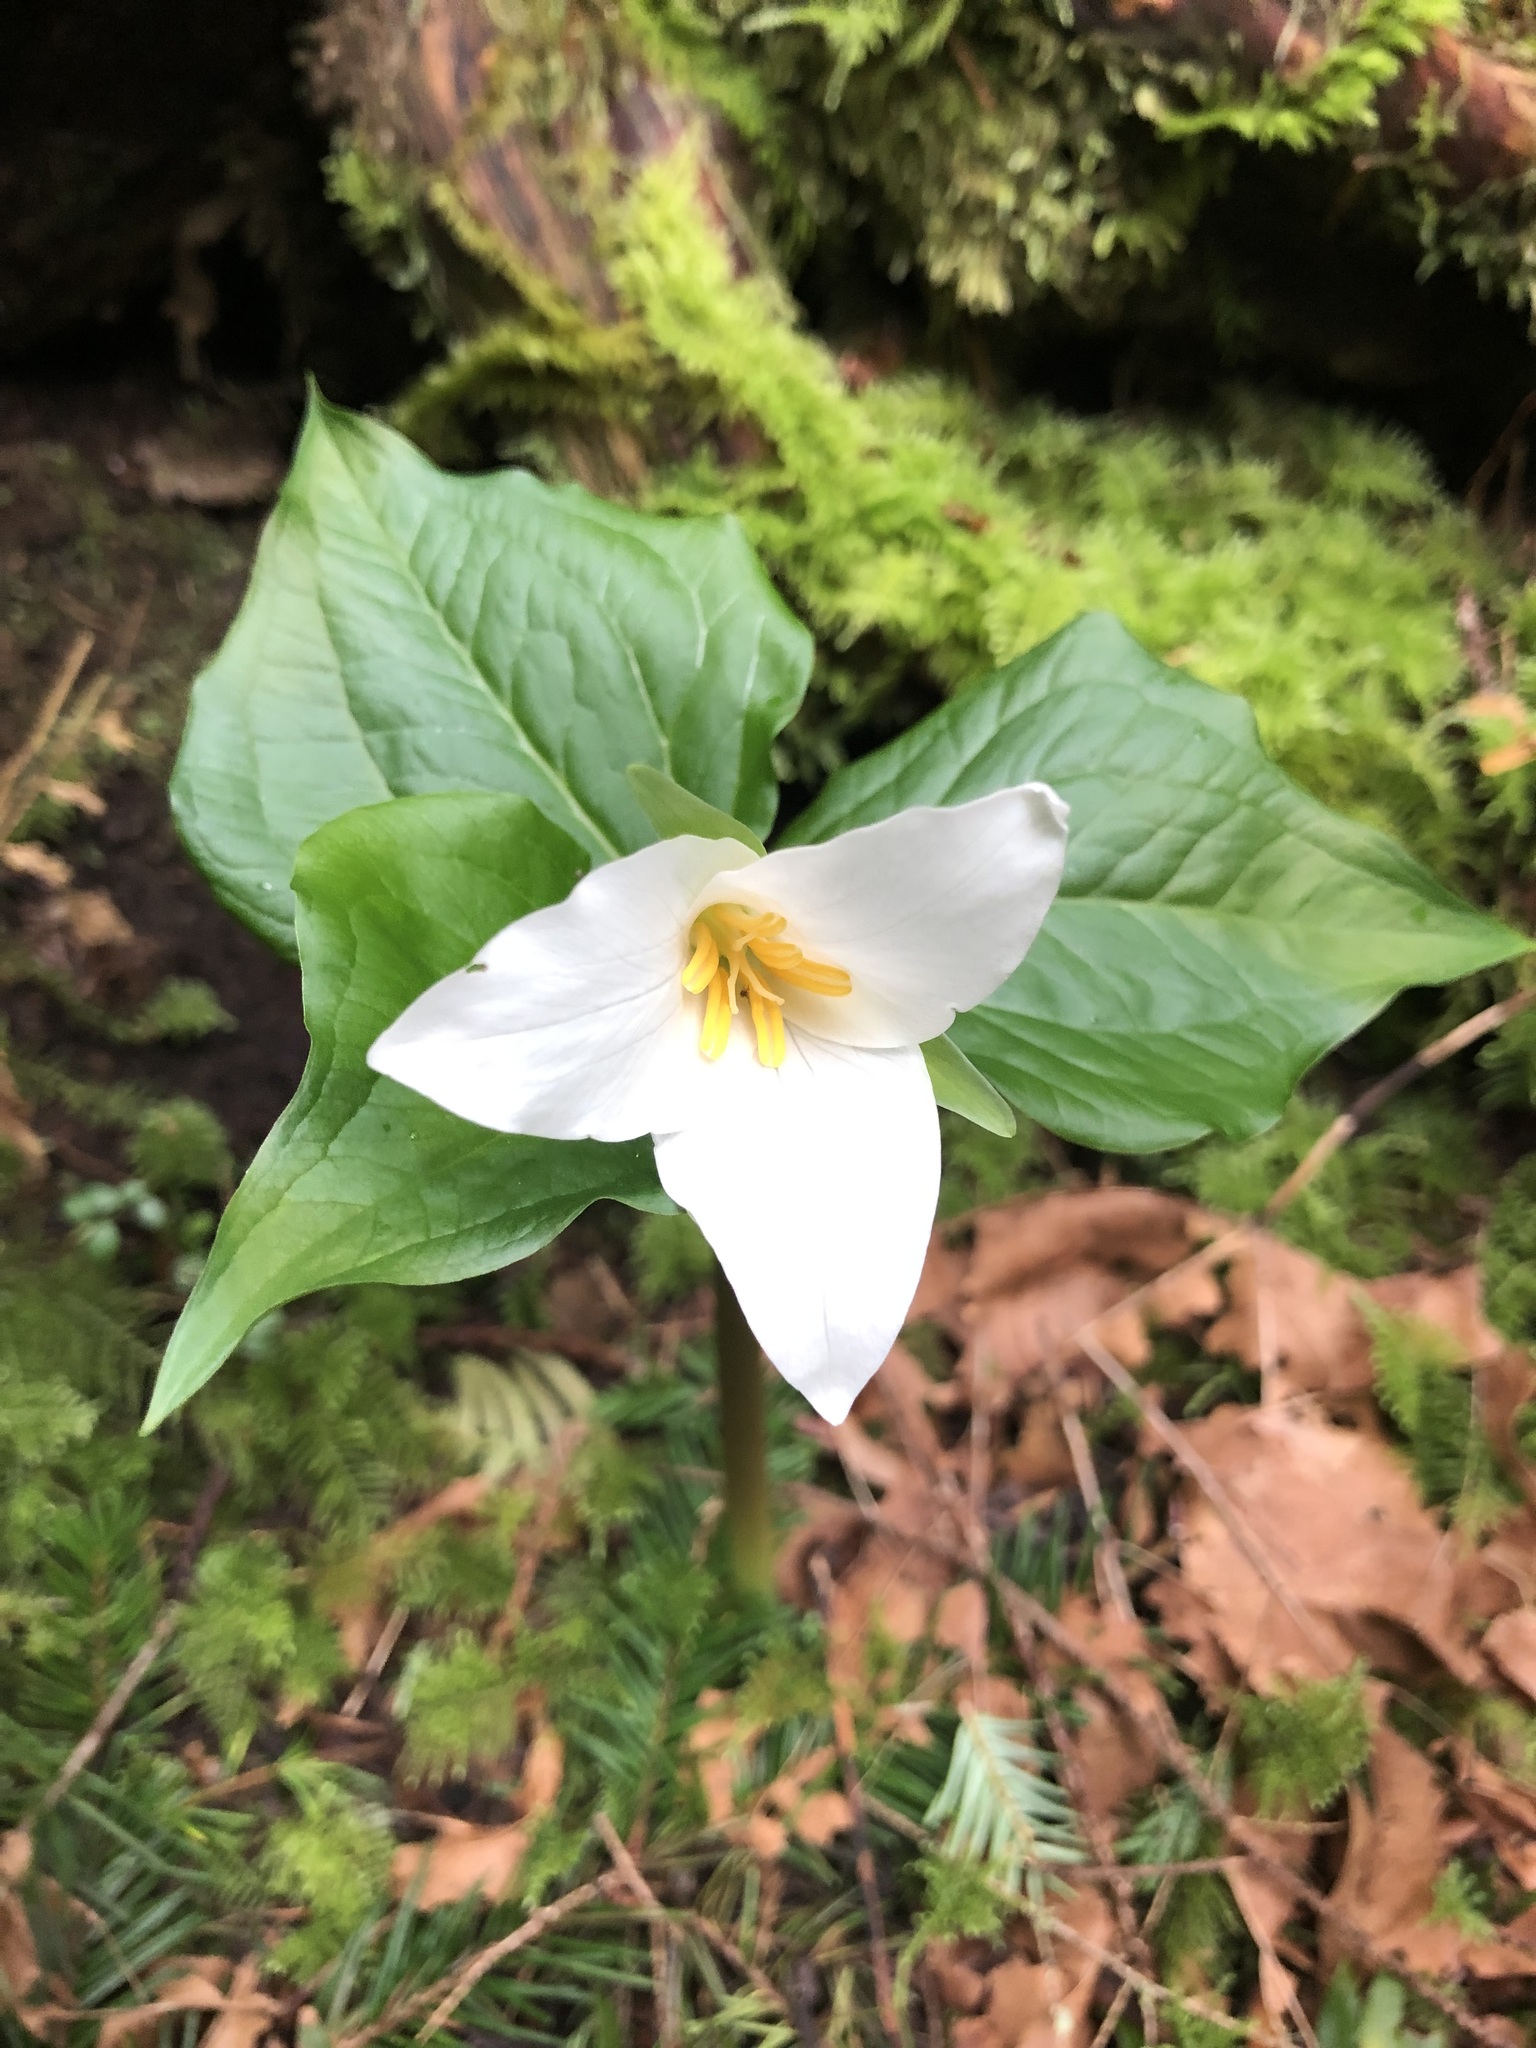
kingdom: Plantae
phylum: Tracheophyta
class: Liliopsida
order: Liliales
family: Melanthiaceae
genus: Trillium
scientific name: Trillium ovatum
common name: Pacific trillium
